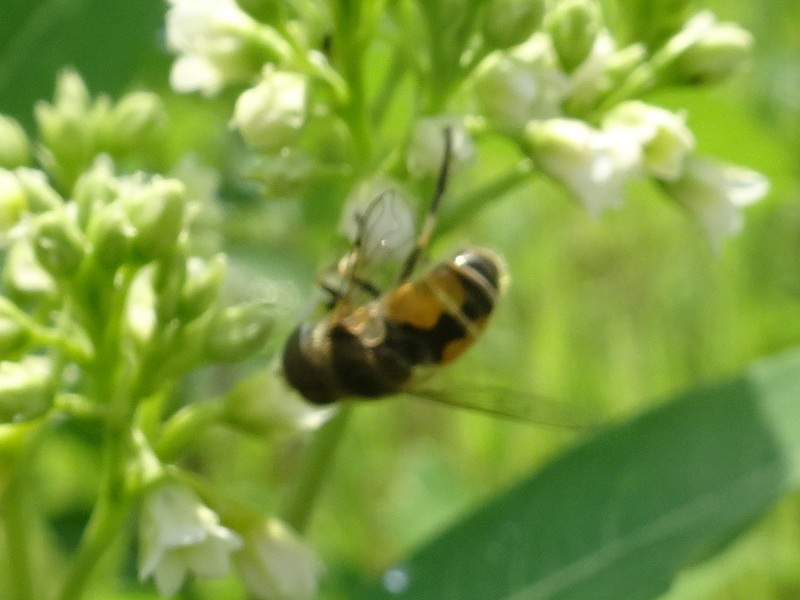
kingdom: Animalia
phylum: Arthropoda
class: Insecta
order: Diptera
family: Syrphidae
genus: Eristalis
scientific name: Eristalis arbustorum
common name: Hover fly
